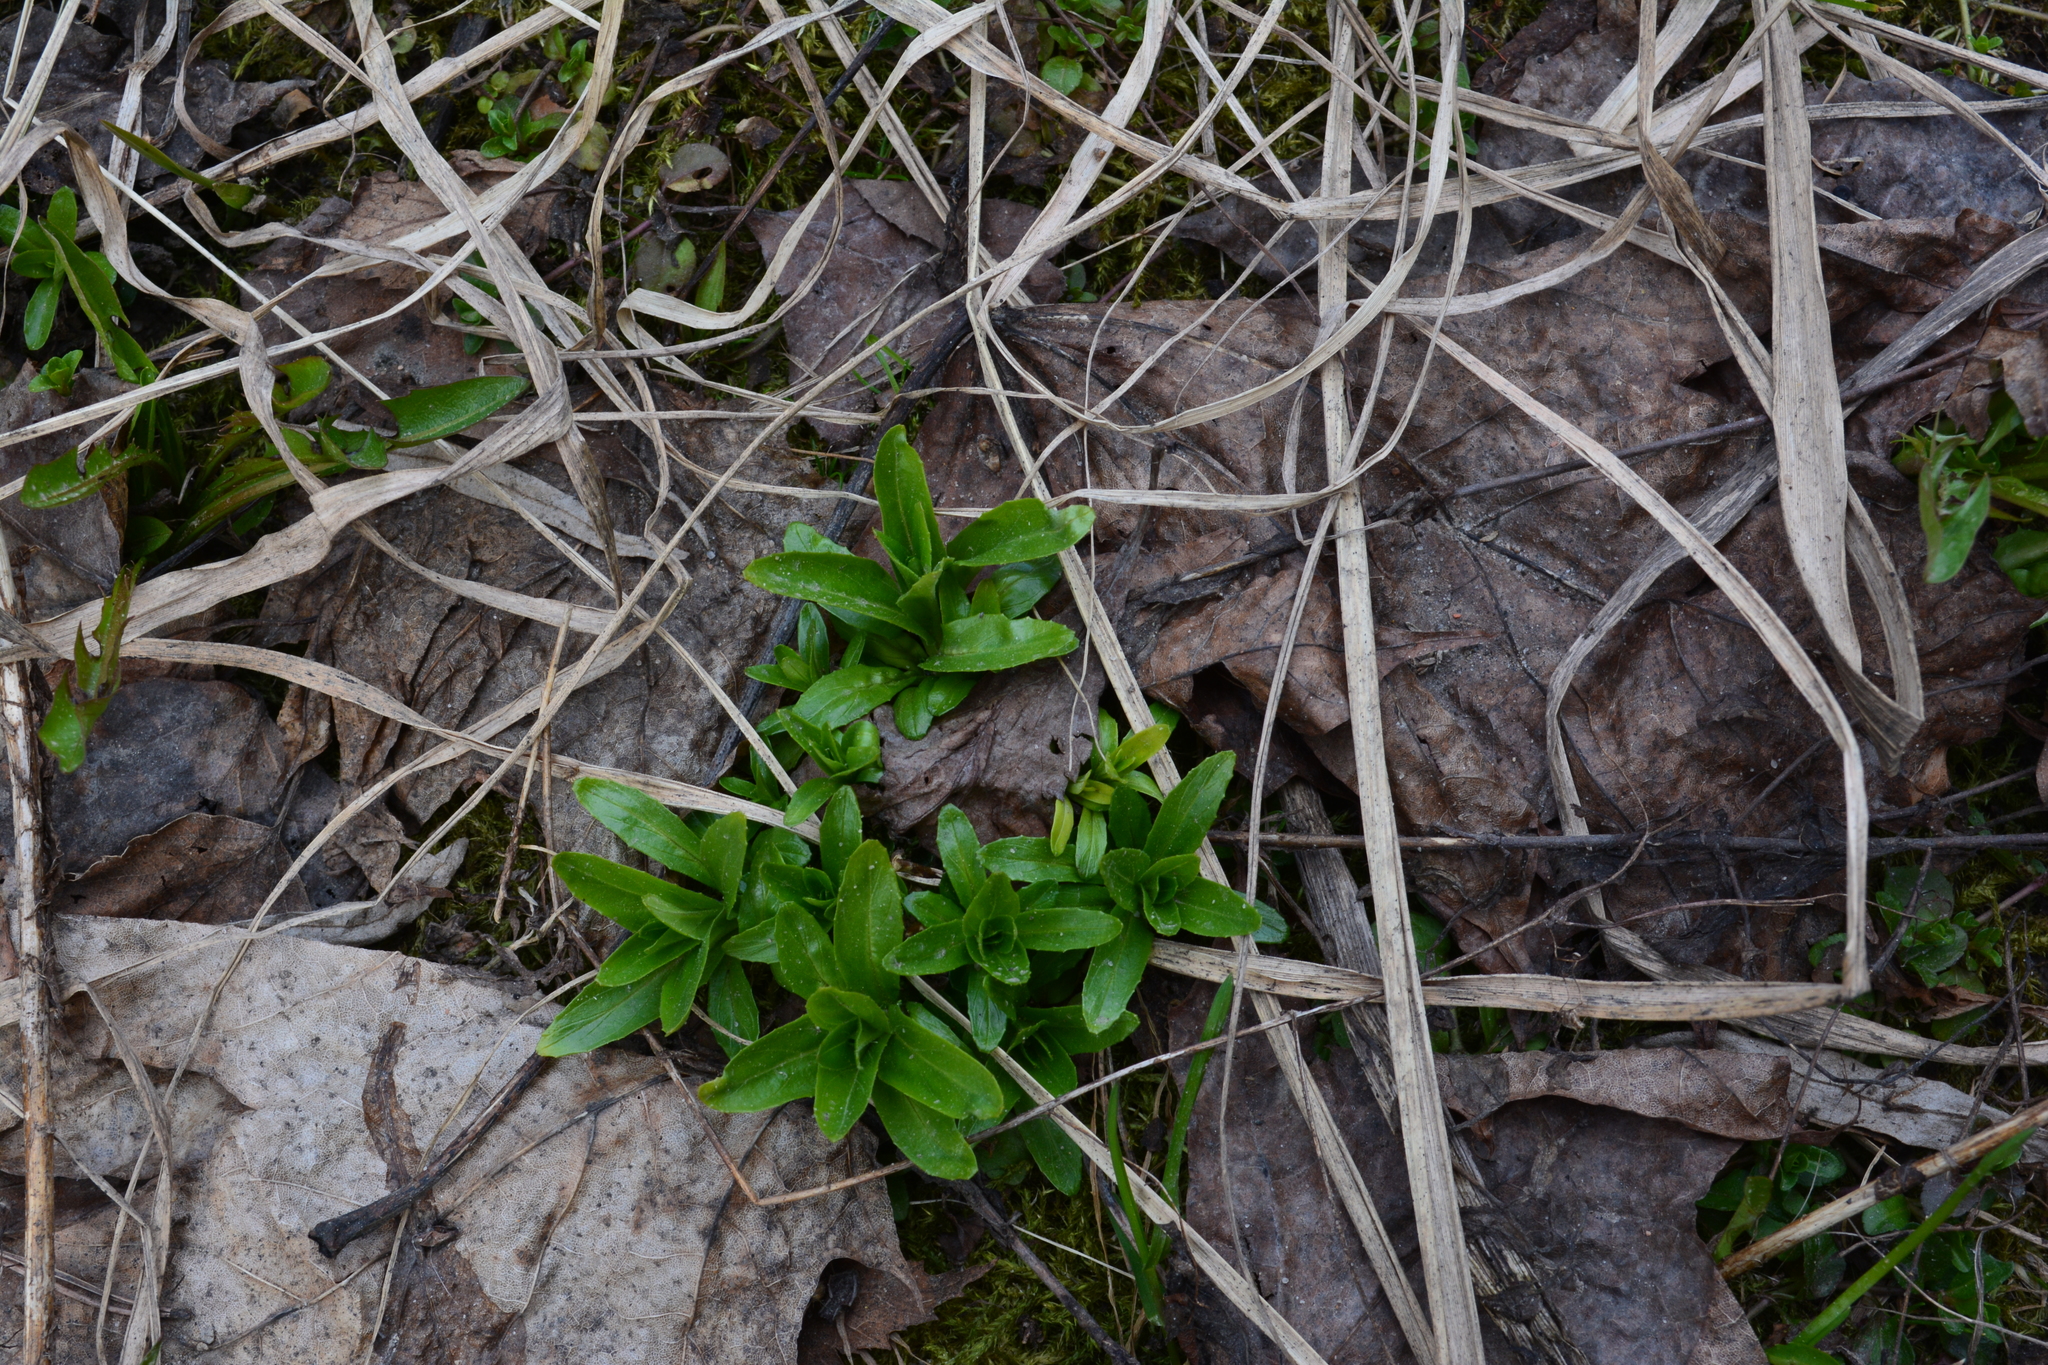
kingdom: Plantae
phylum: Tracheophyta
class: Magnoliopsida
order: Myrtales
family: Onagraceae
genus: Epilobium
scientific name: Epilobium
